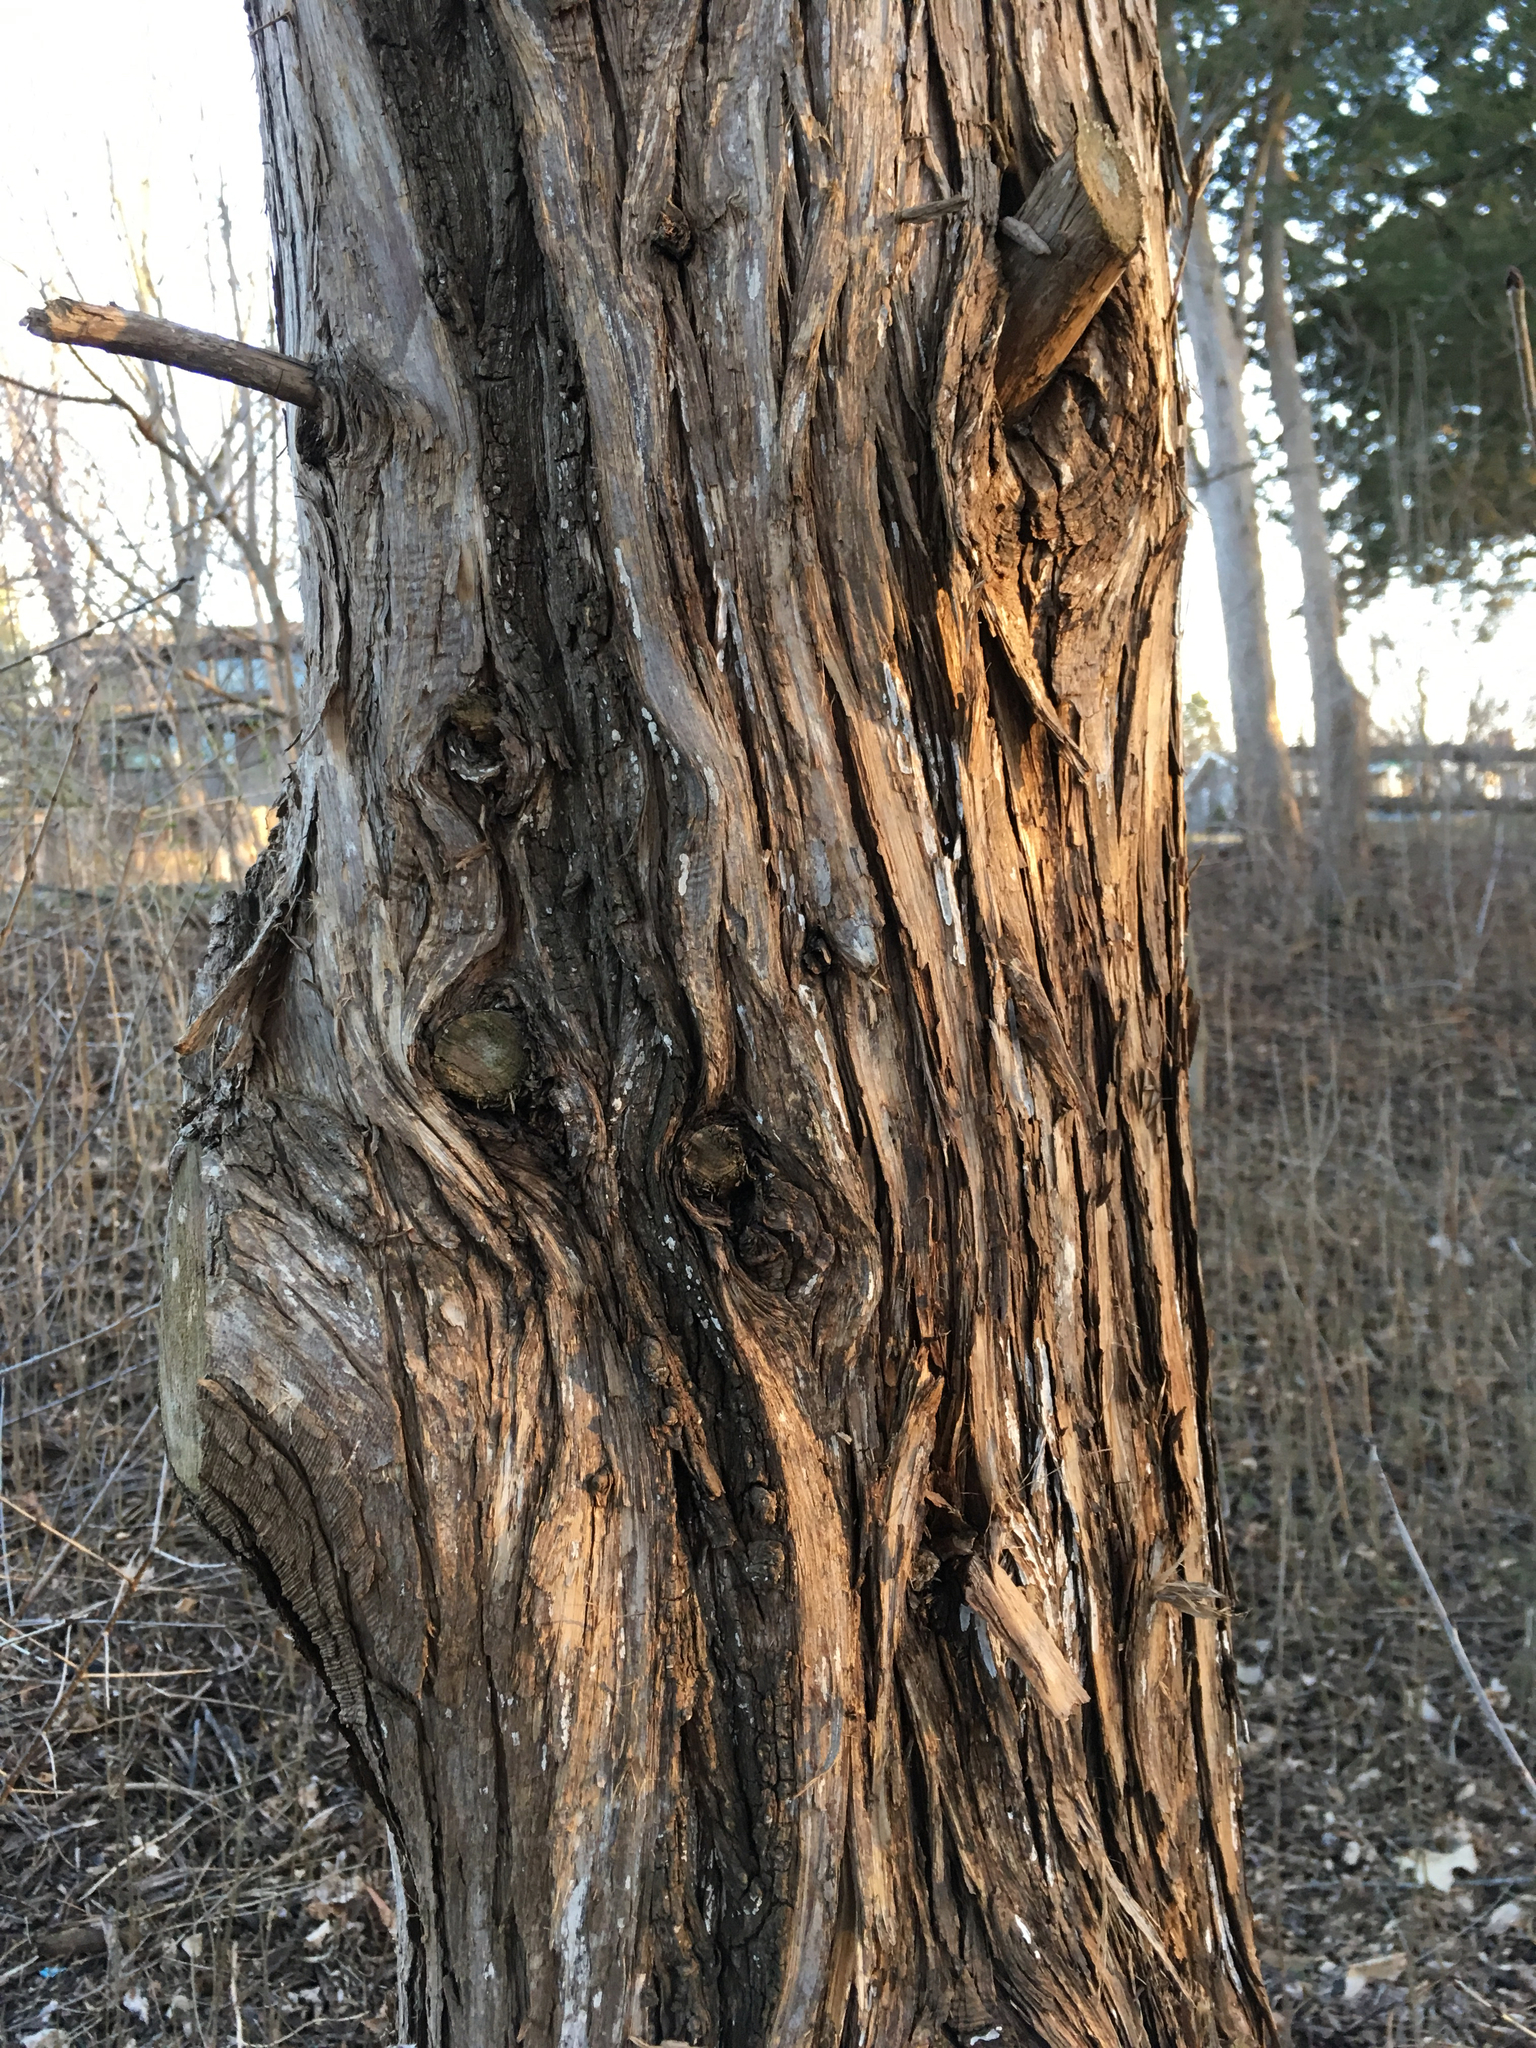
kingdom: Plantae
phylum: Tracheophyta
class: Pinopsida
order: Pinales
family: Cupressaceae
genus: Juniperus
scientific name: Juniperus virginiana
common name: Red juniper
